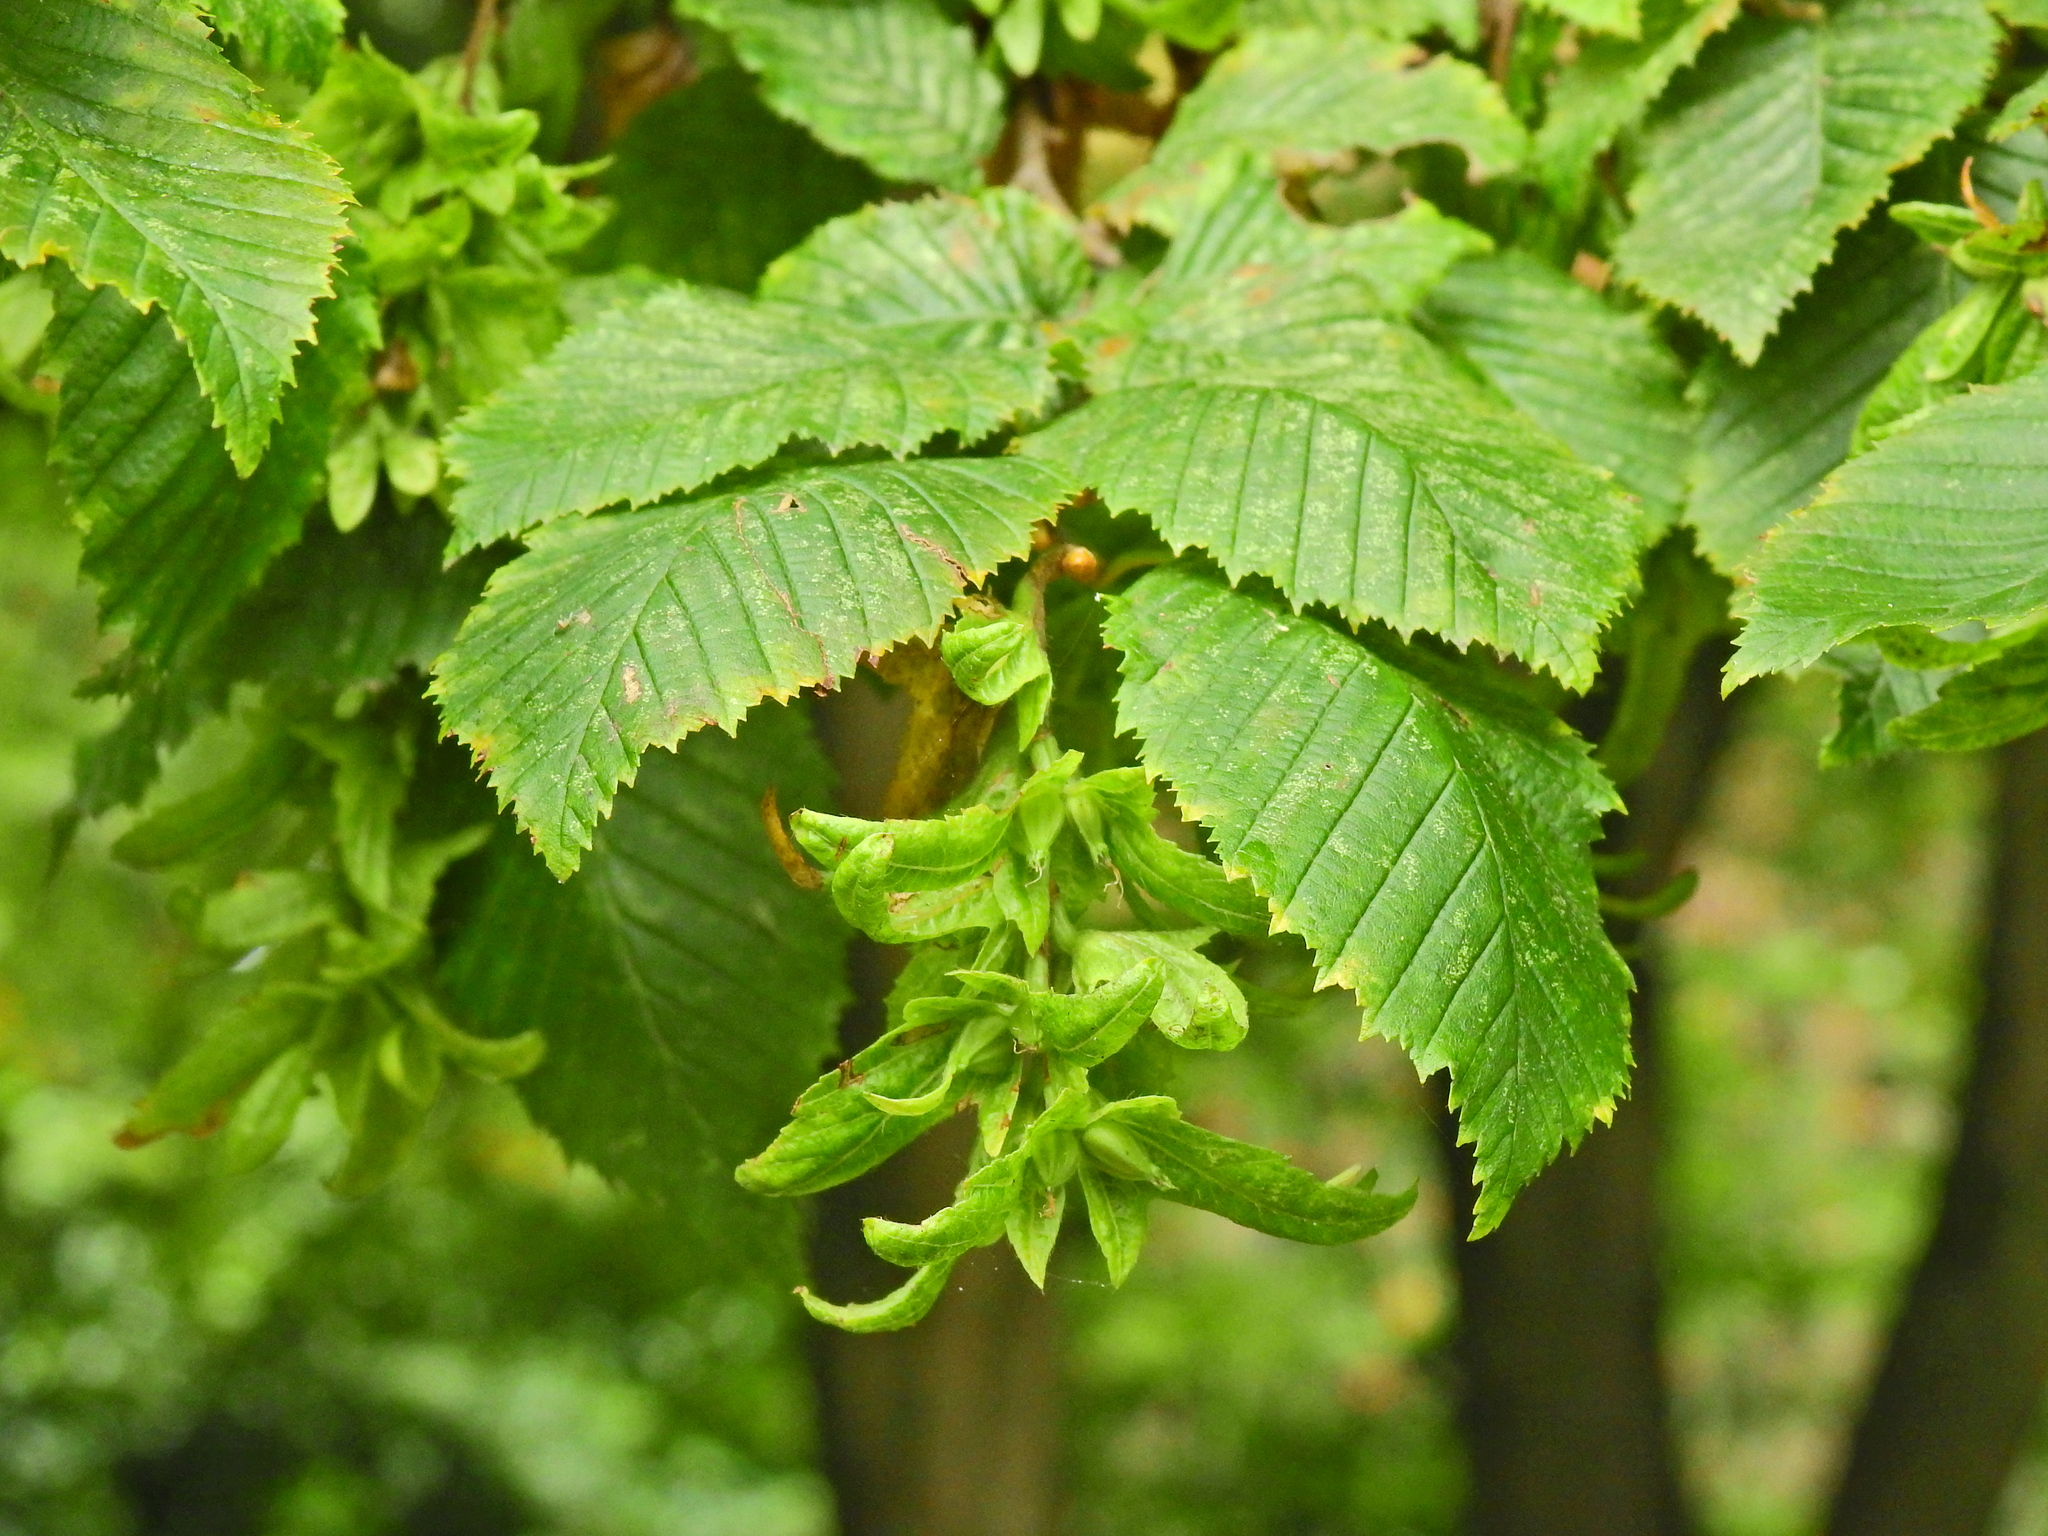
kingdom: Plantae
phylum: Tracheophyta
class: Magnoliopsida
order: Fagales
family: Betulaceae
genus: Carpinus
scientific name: Carpinus betulus
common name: Hornbeam
